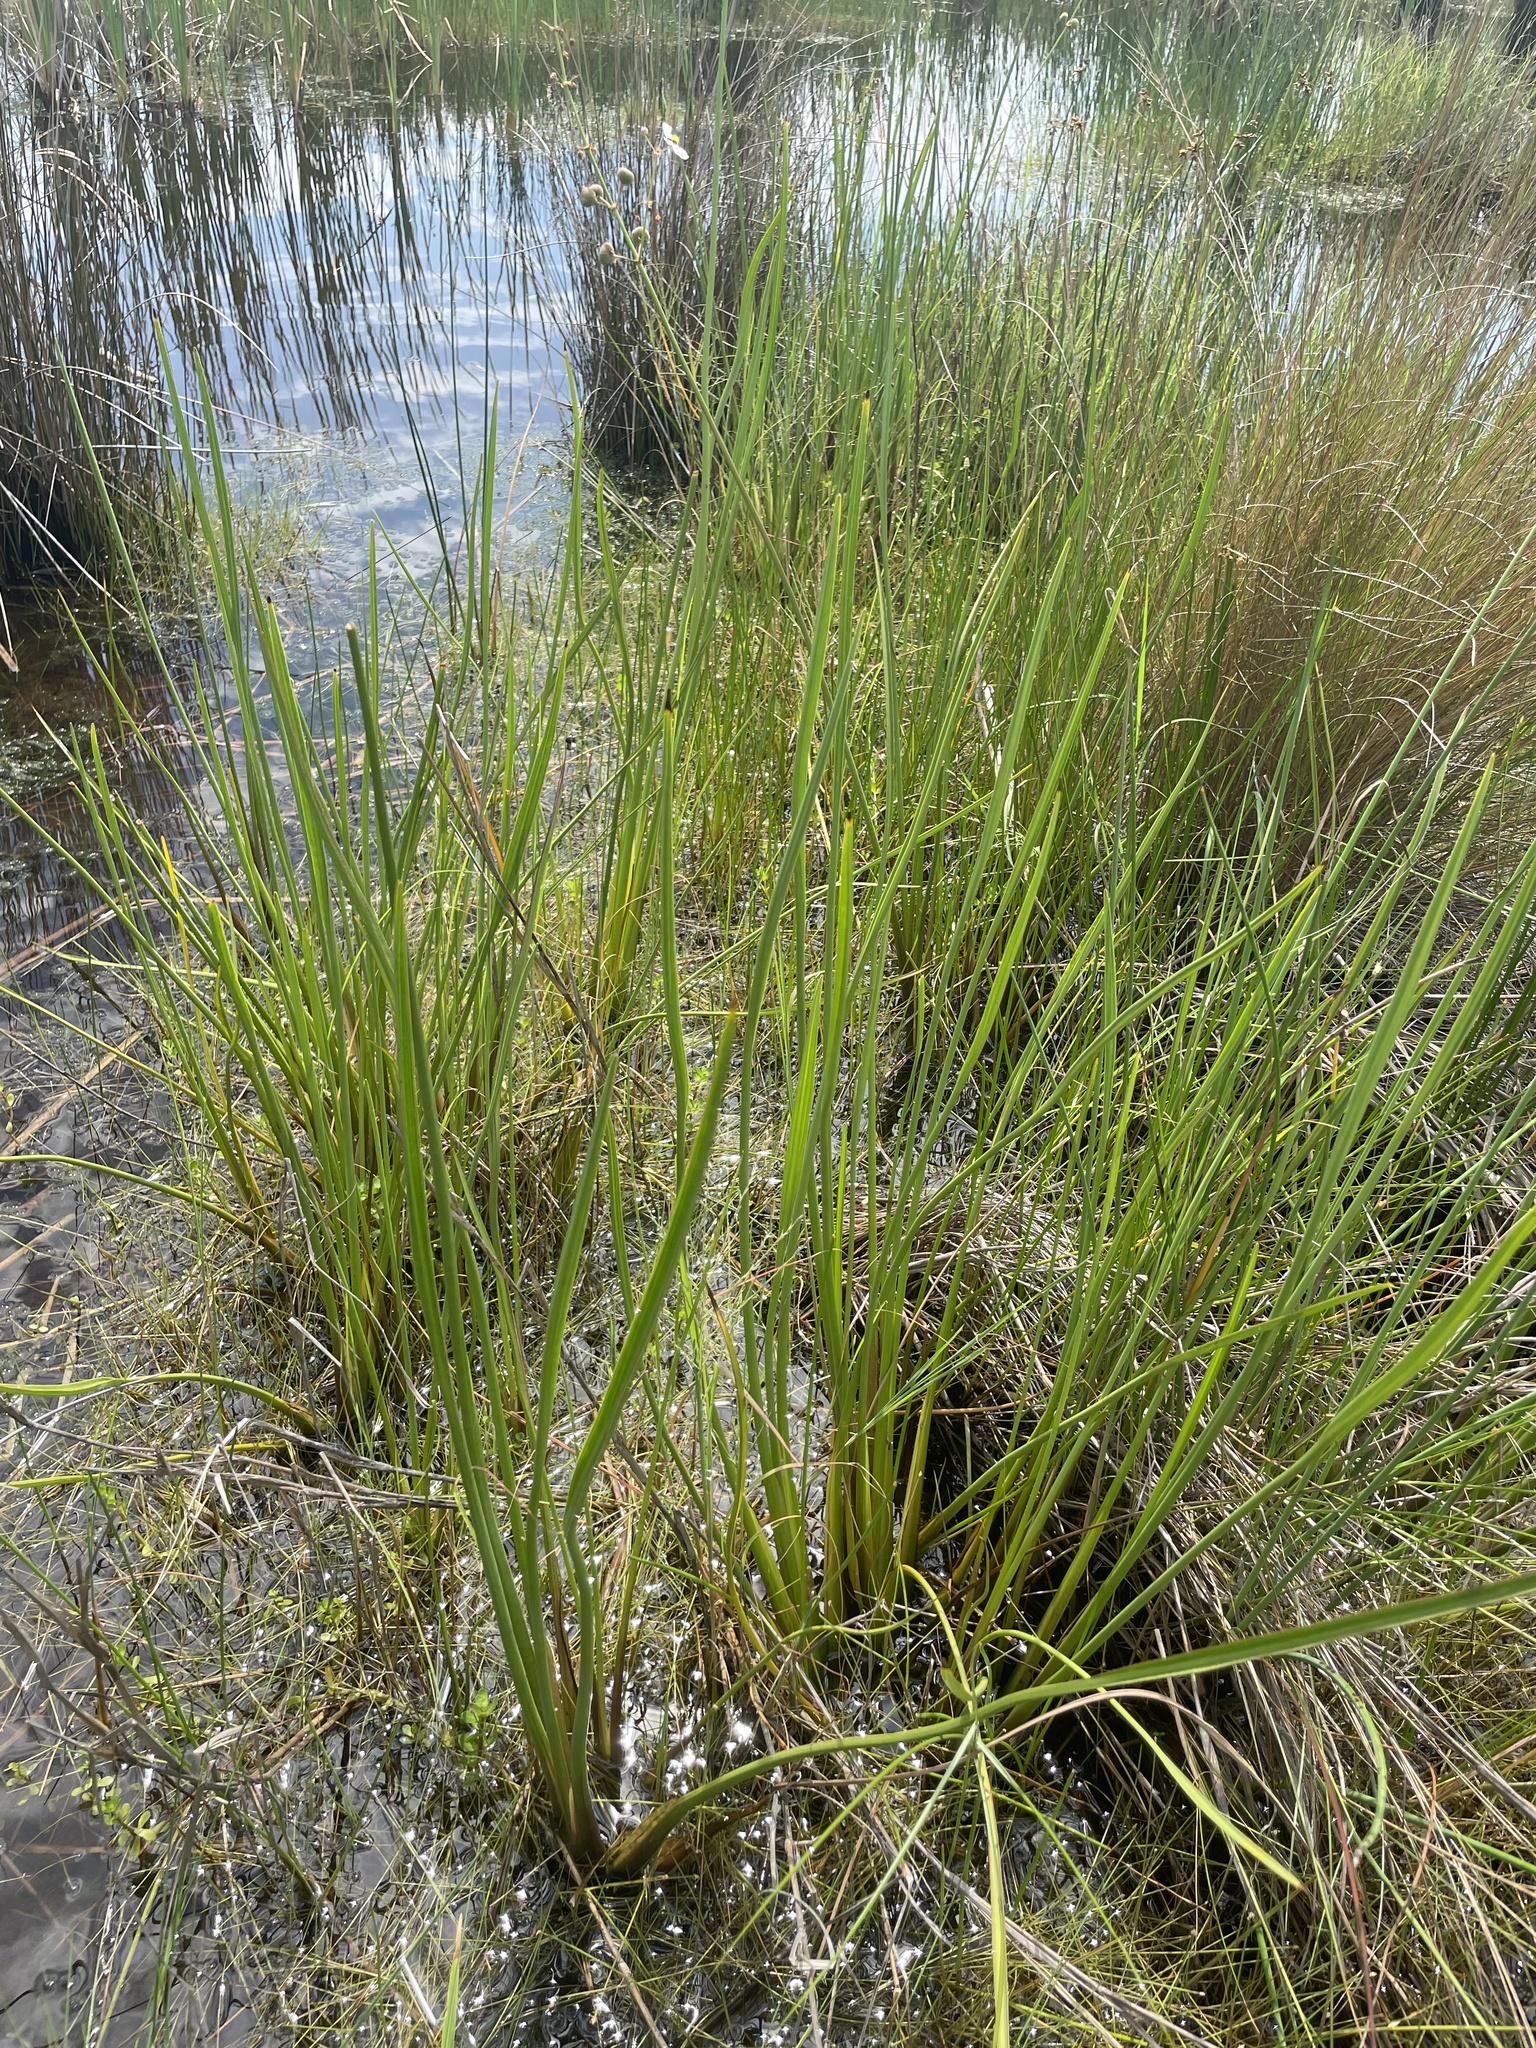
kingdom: Plantae
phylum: Tracheophyta
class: Liliopsida
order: Alismatales
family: Alismataceae
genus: Sagittaria
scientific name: Sagittaria lancifolia
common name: Lance-leaf arrowhead
